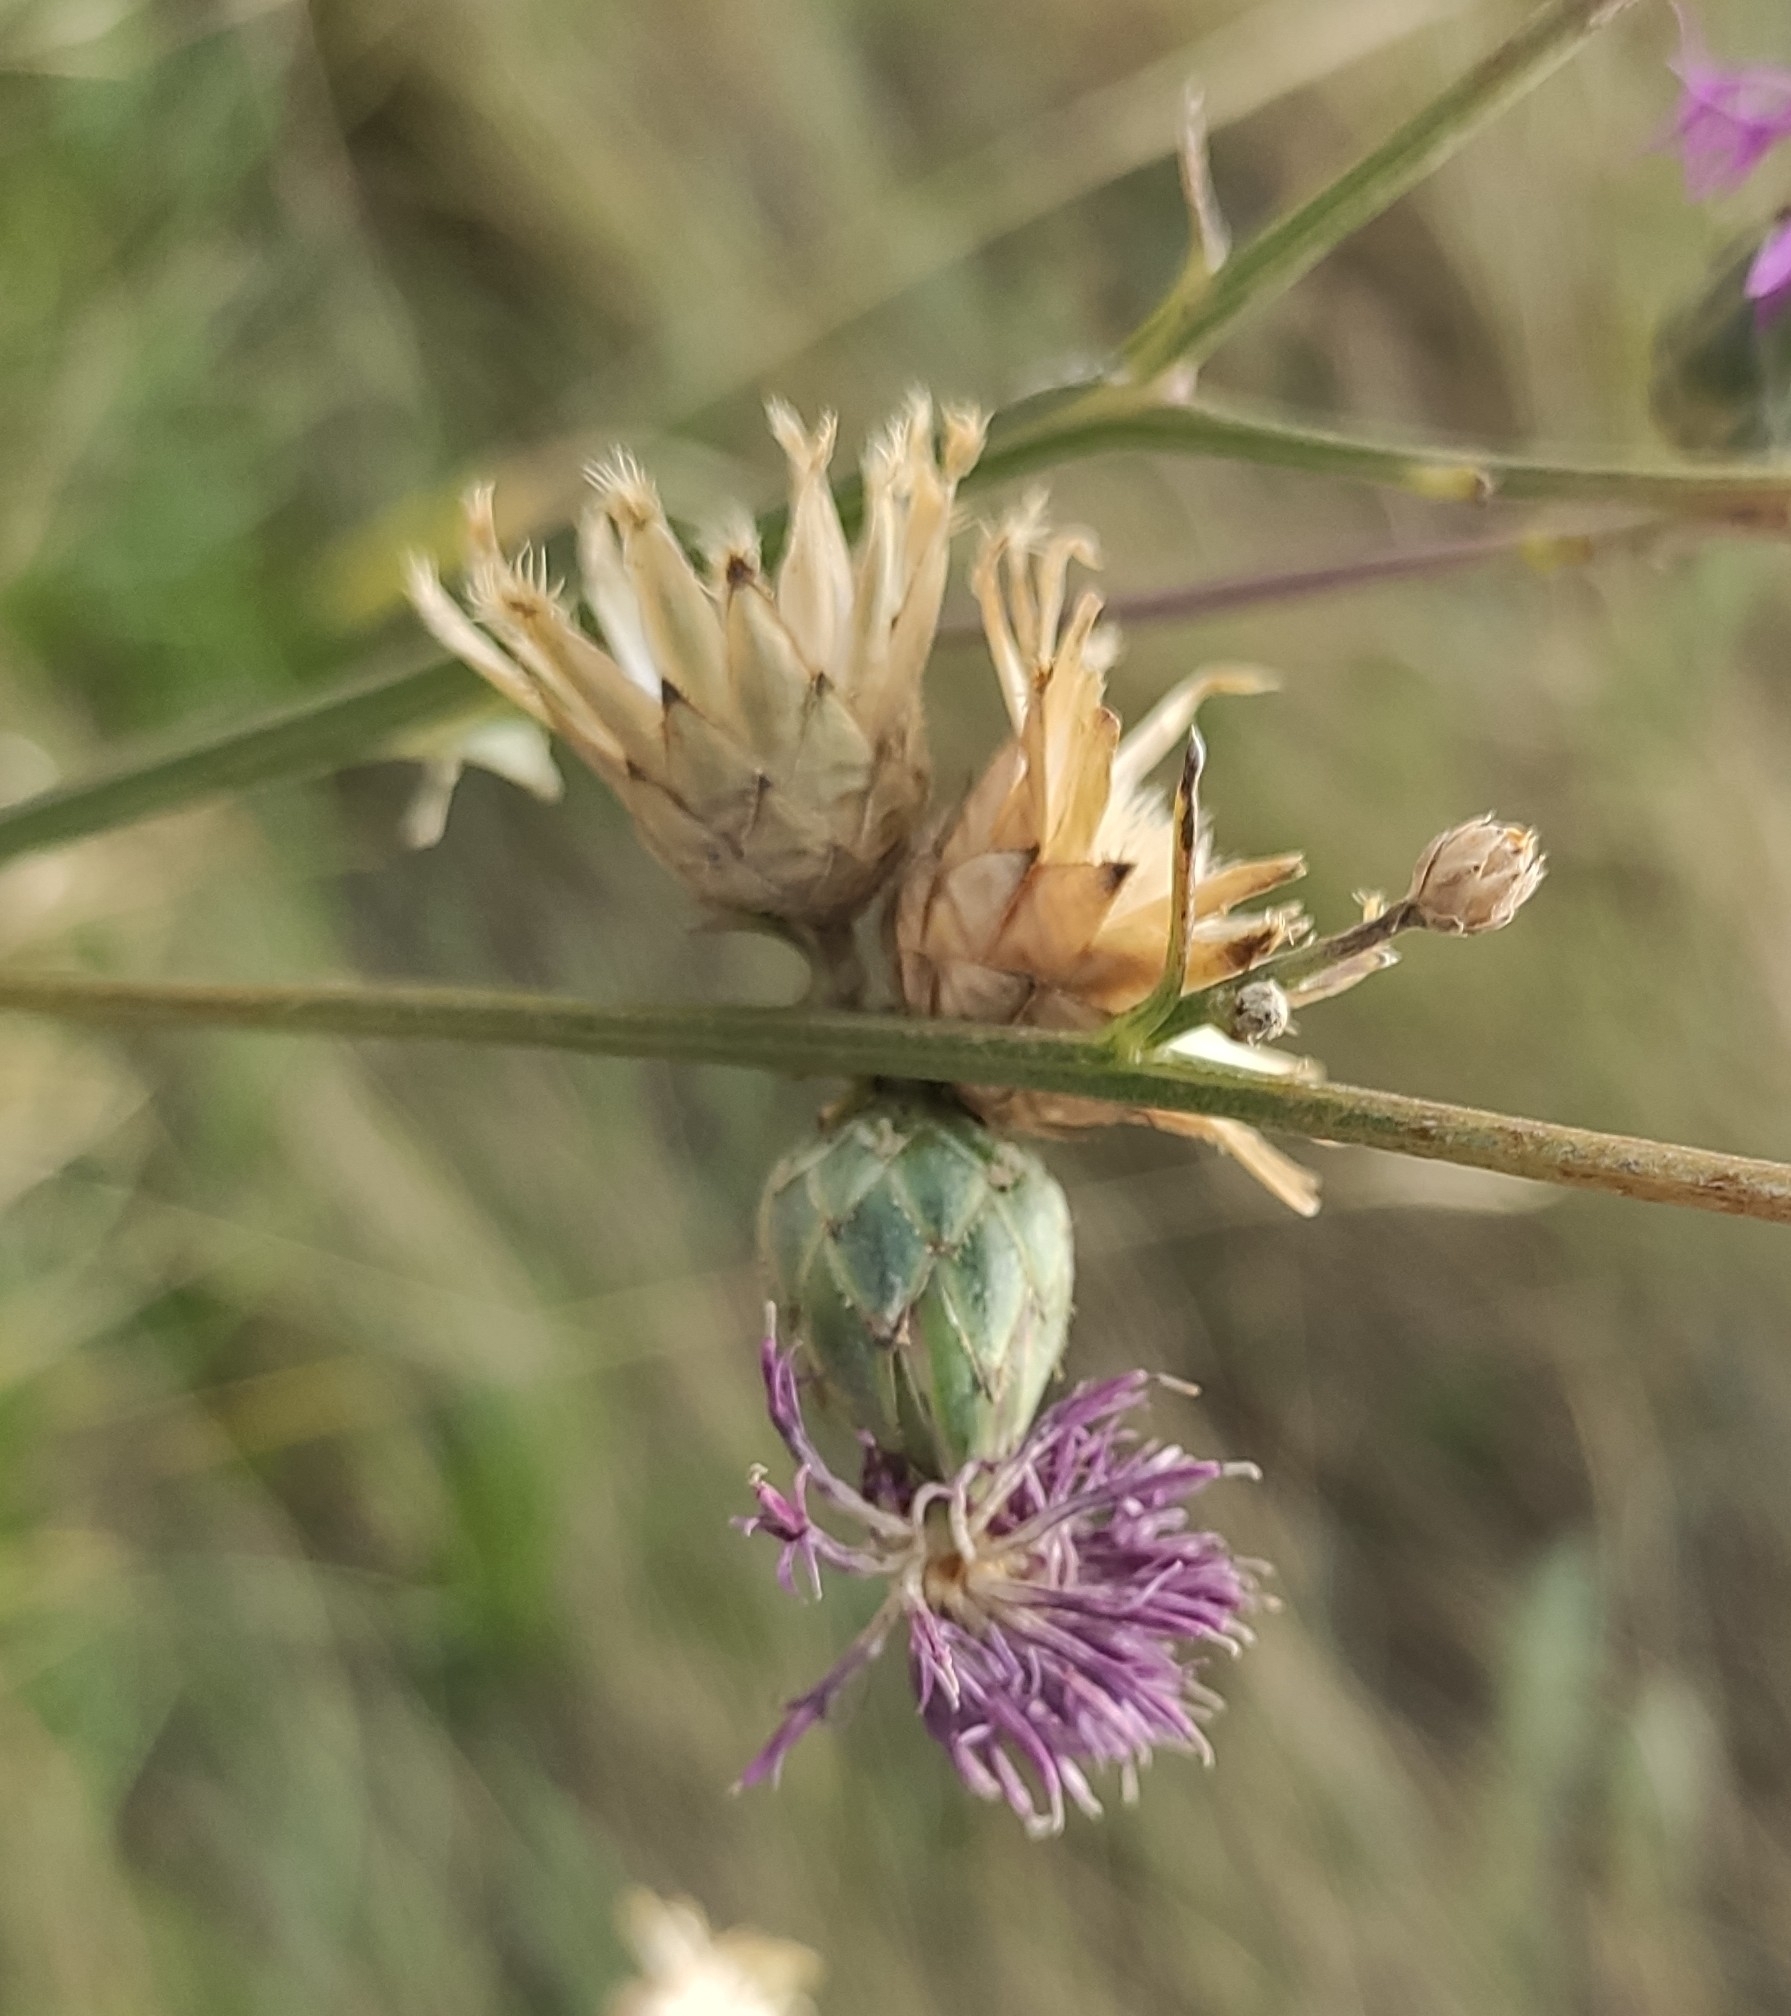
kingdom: Plantae
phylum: Tracheophyta
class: Magnoliopsida
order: Asterales
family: Asteraceae
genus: Centaurea
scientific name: Centaurea adpressa
